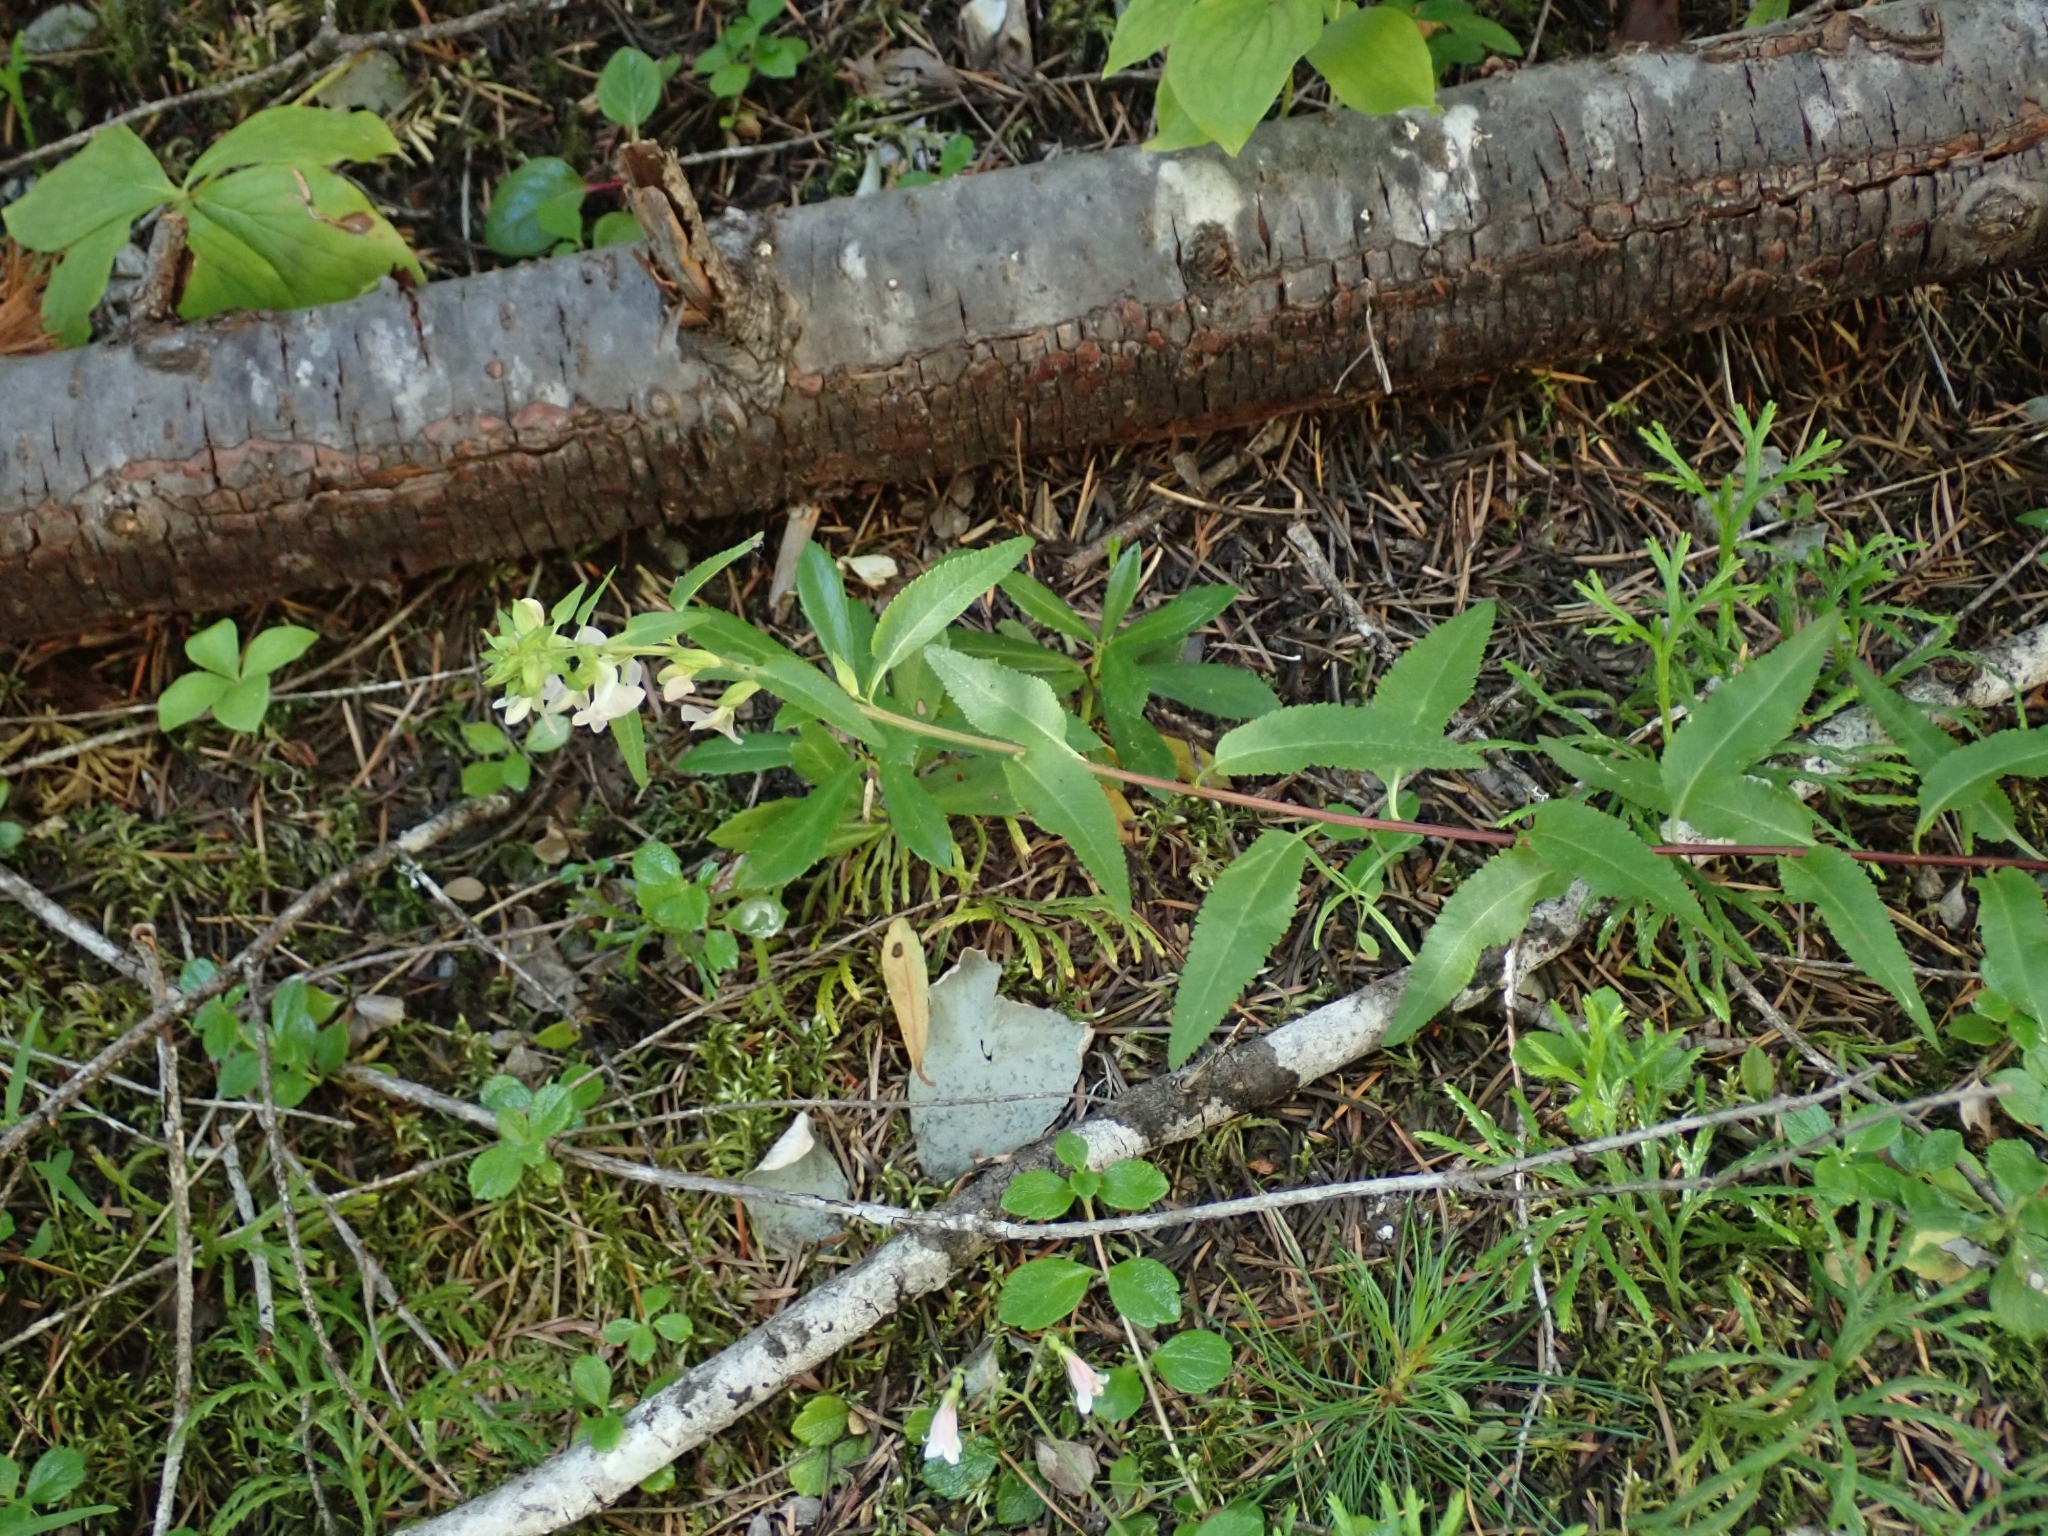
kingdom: Plantae
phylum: Tracheophyta
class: Magnoliopsida
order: Lamiales
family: Orobanchaceae
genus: Pedicularis
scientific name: Pedicularis racemosa
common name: Leafy lousewort
